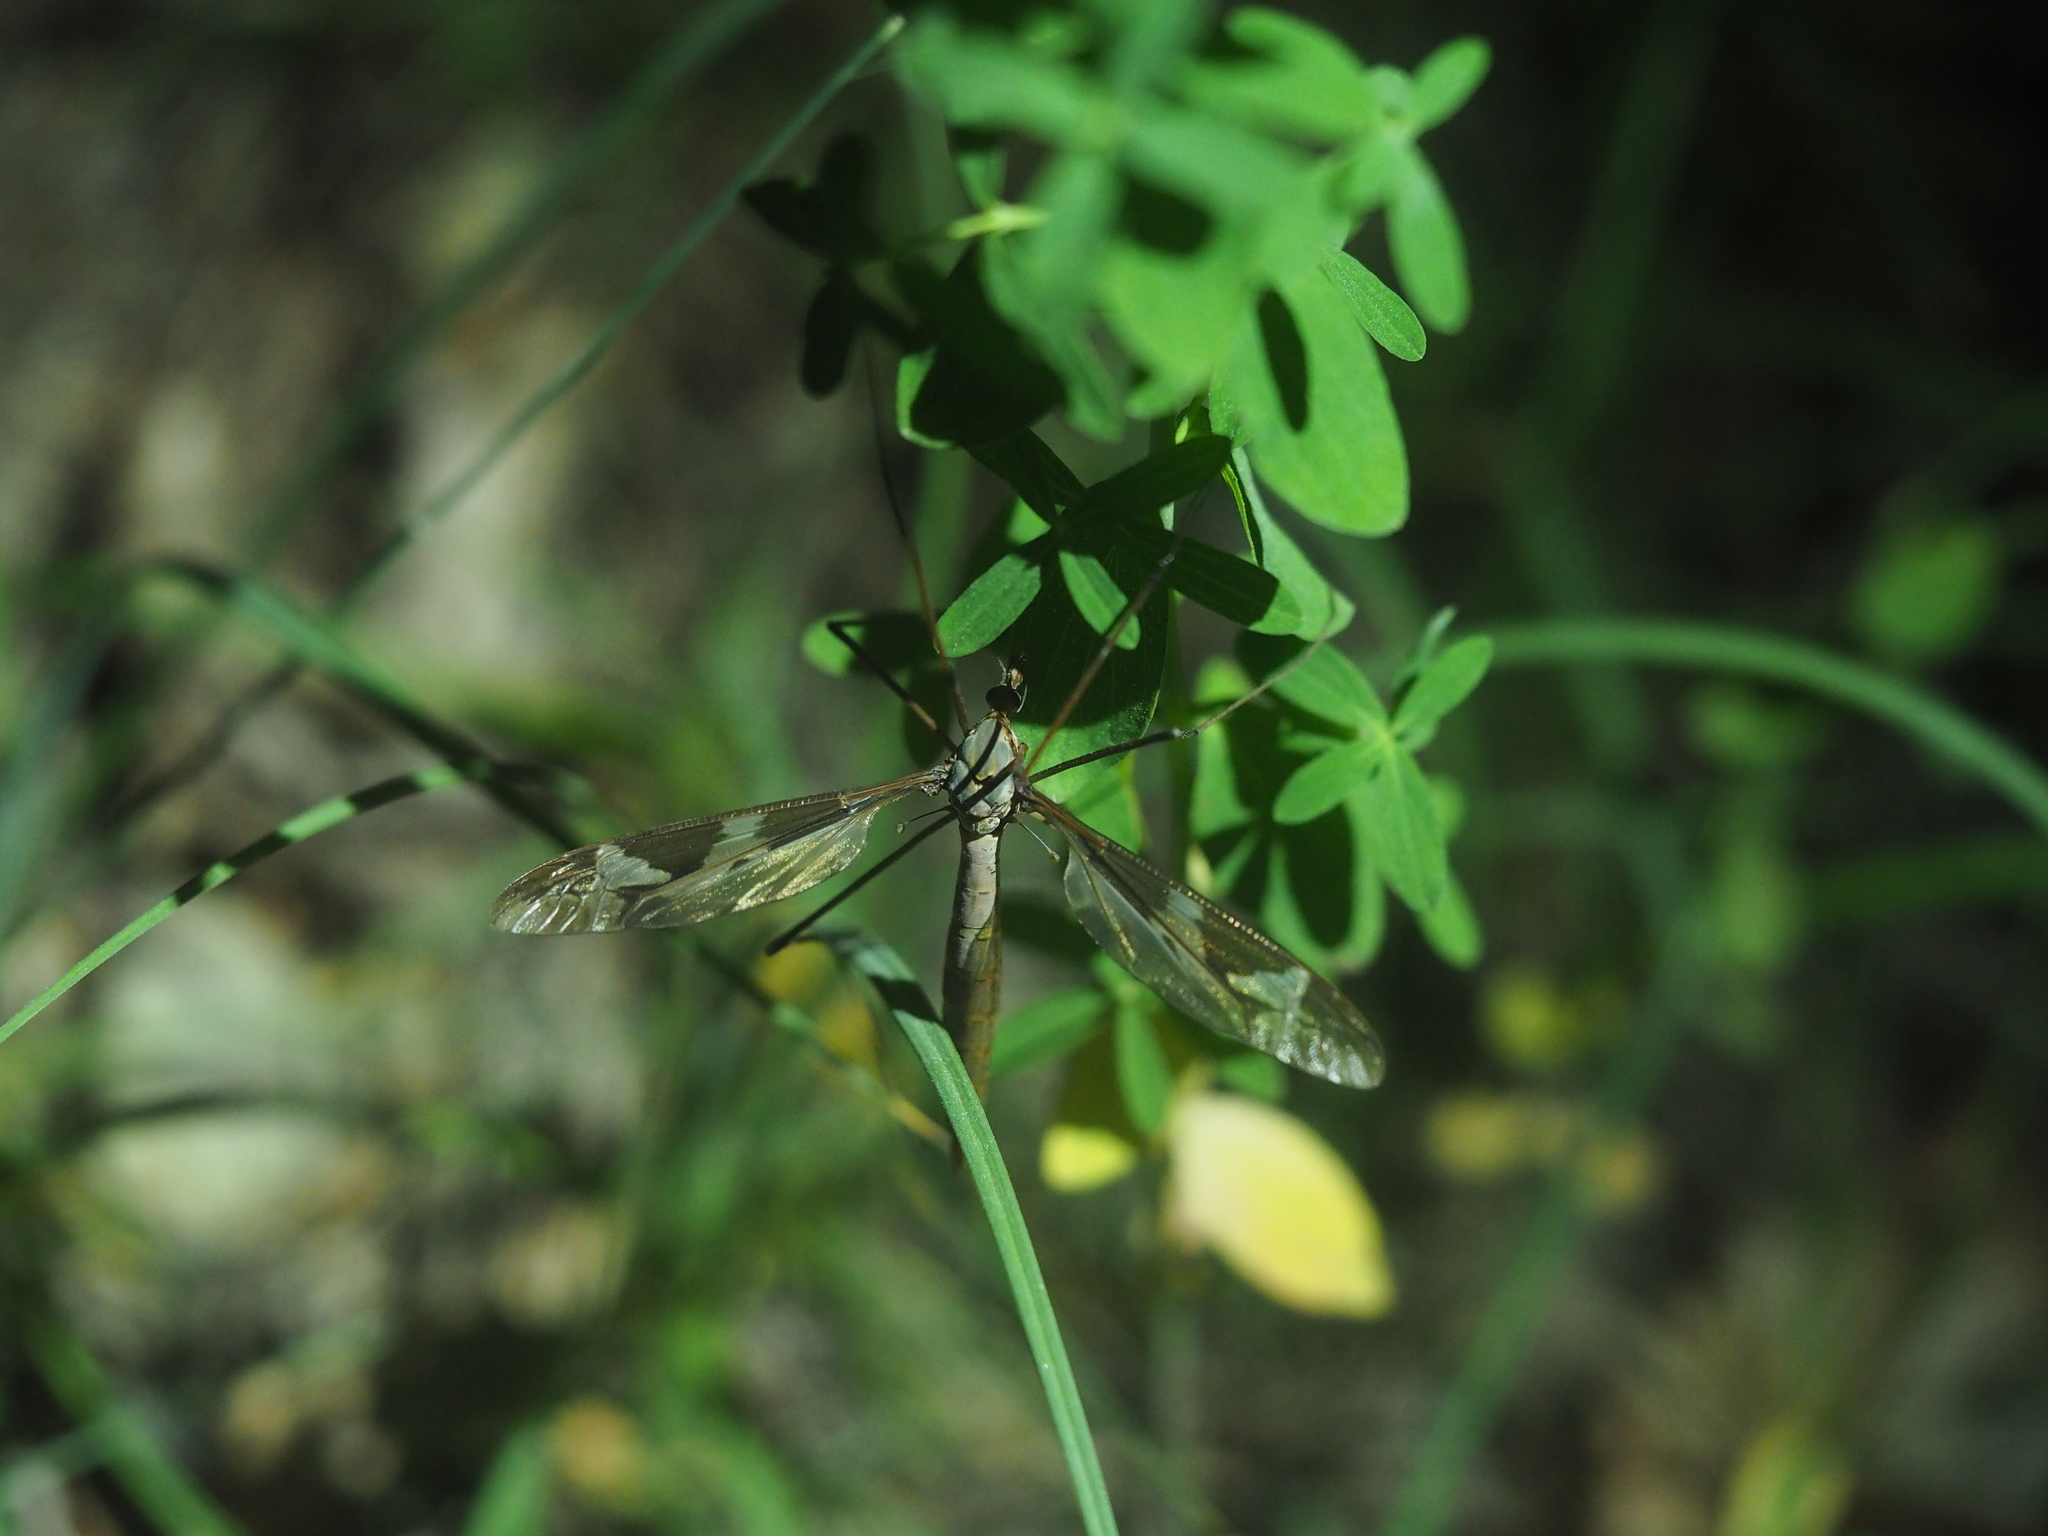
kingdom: Animalia
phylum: Arthropoda
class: Insecta
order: Diptera
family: Tipulidae
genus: Tipula
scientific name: Tipula maxima
